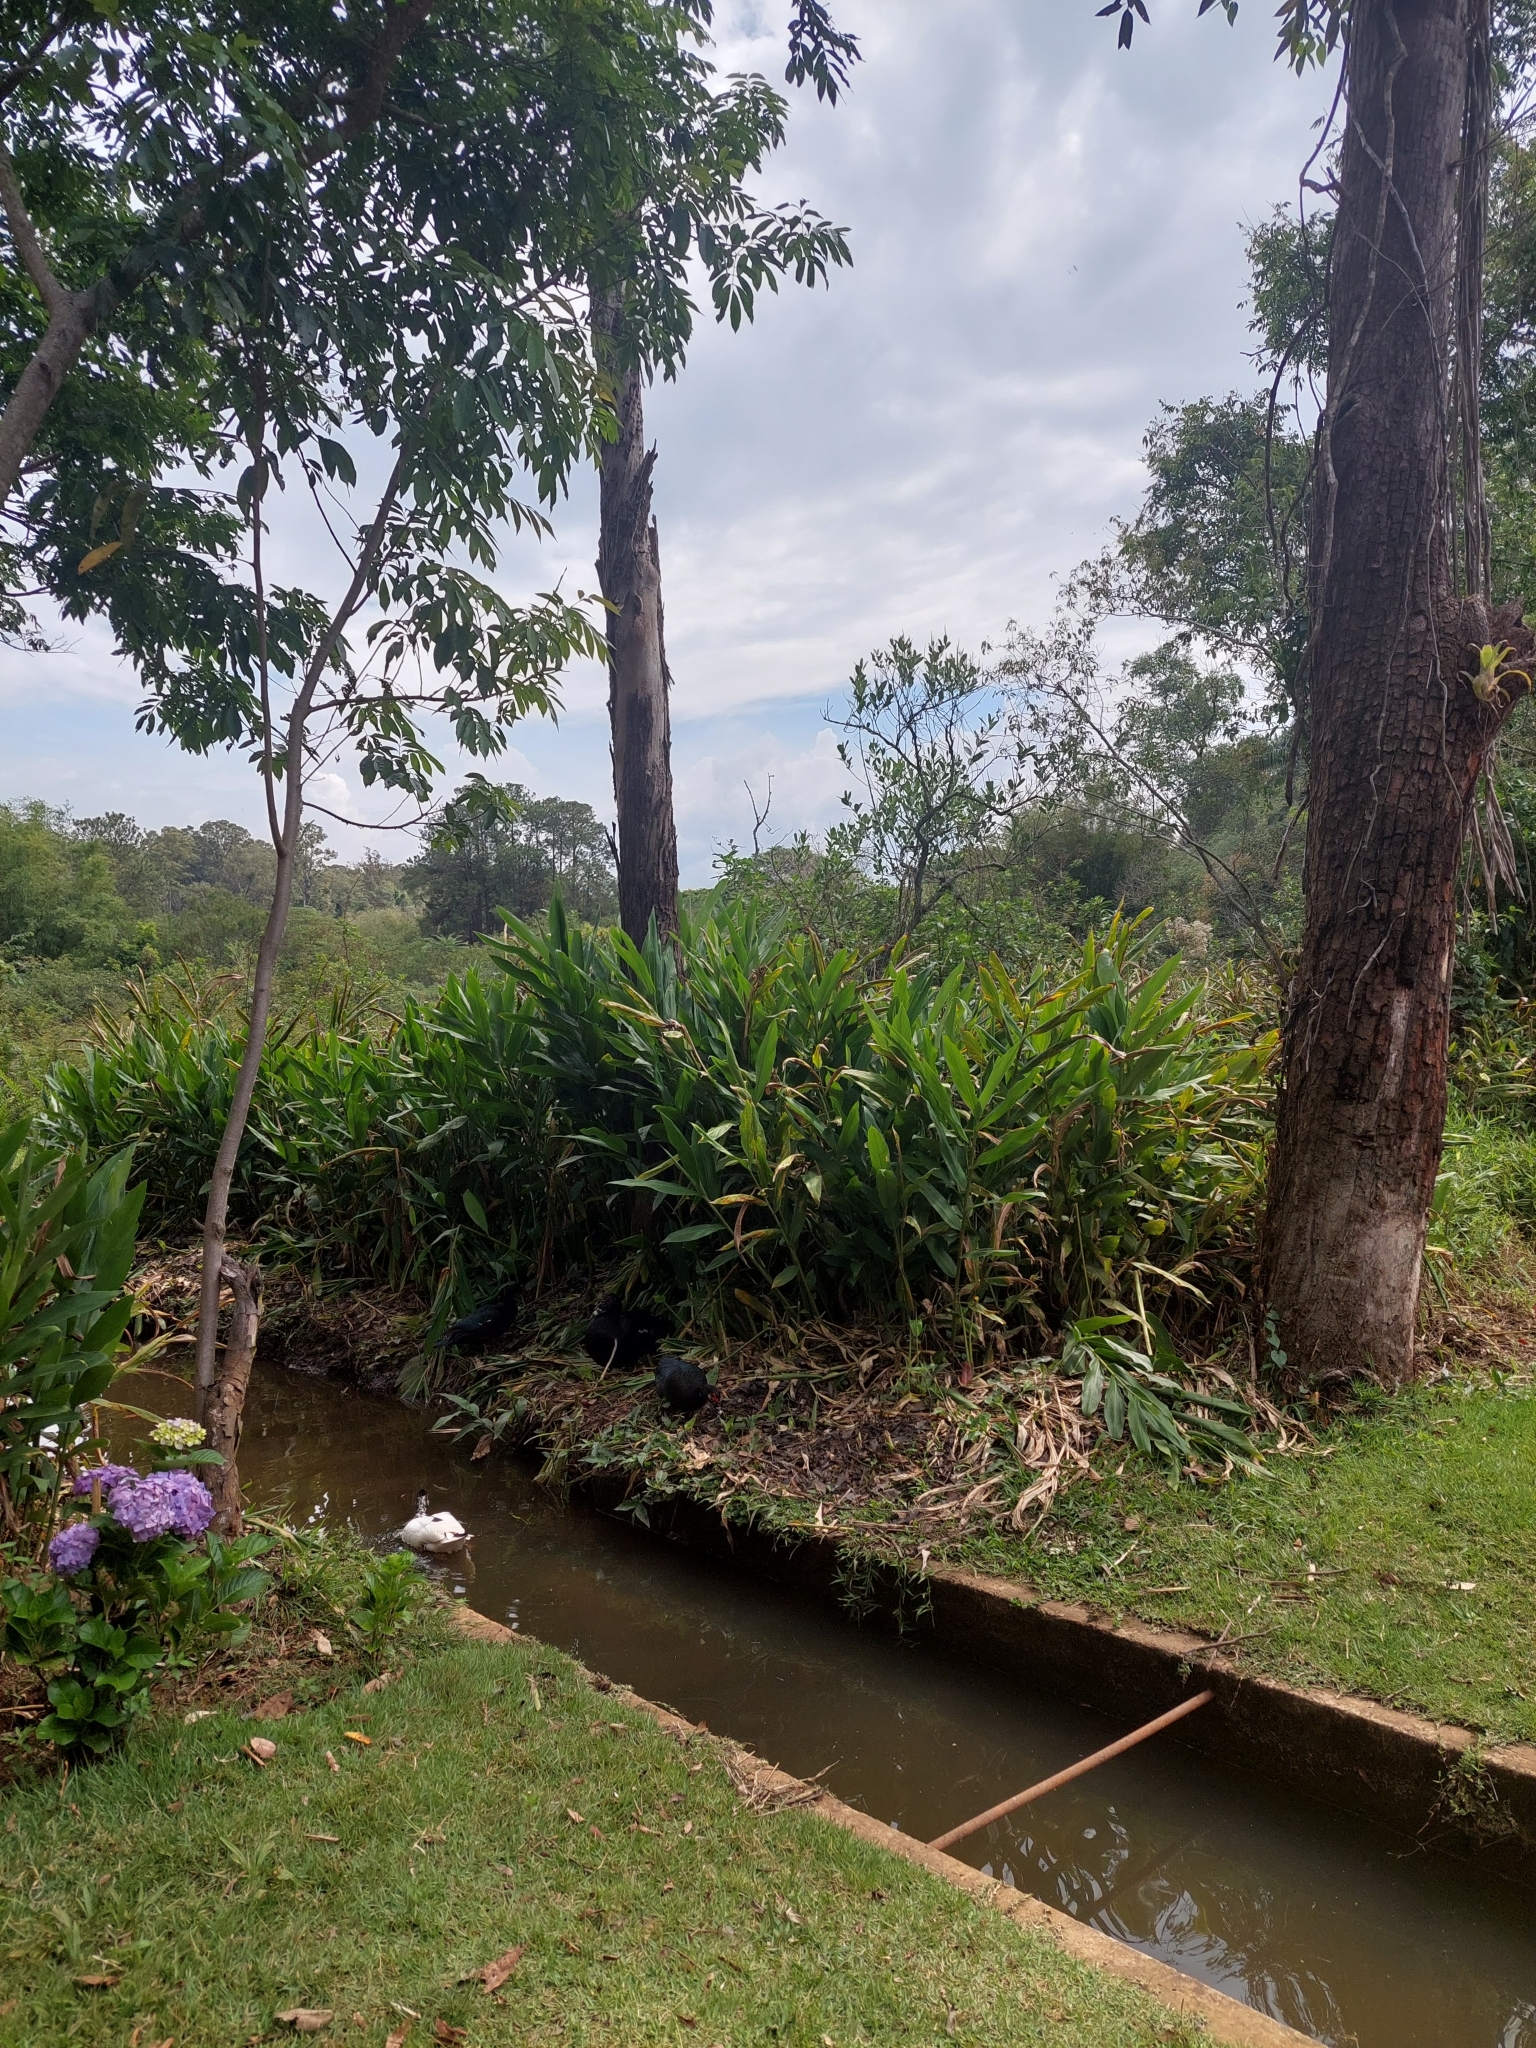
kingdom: Plantae
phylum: Tracheophyta
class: Liliopsida
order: Zingiberales
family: Zingiberaceae
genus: Hedychium
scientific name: Hedychium coronarium
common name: White garland-lily
